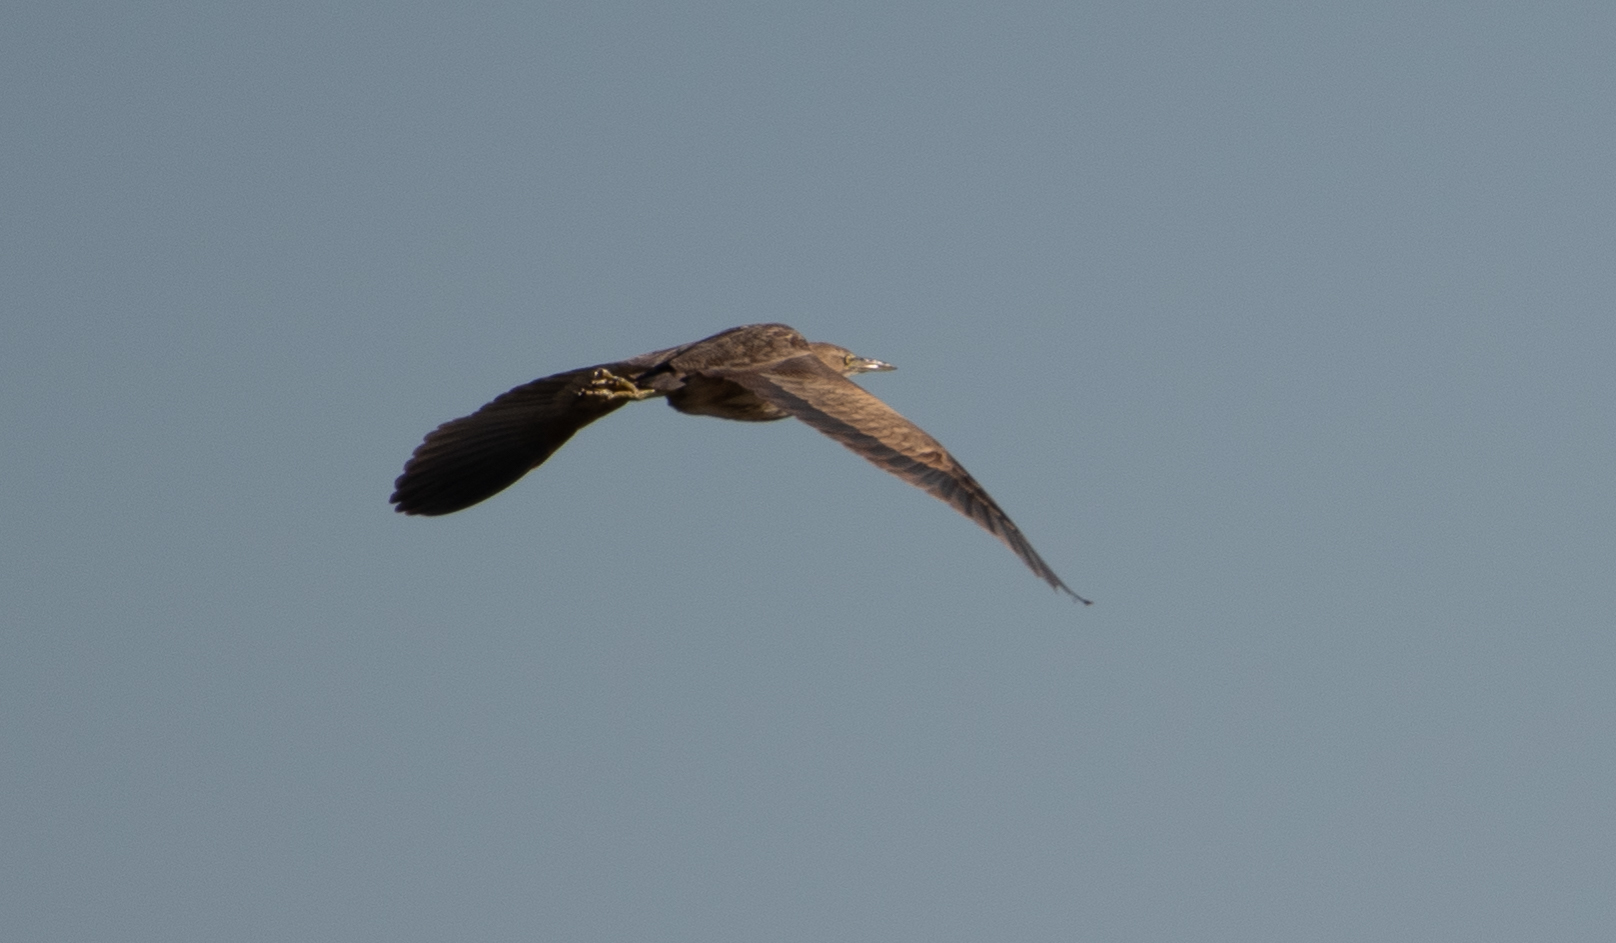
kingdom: Animalia
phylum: Chordata
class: Aves
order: Pelecaniformes
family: Ardeidae
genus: Botaurus
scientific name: Botaurus lentiginosus
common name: American bittern
